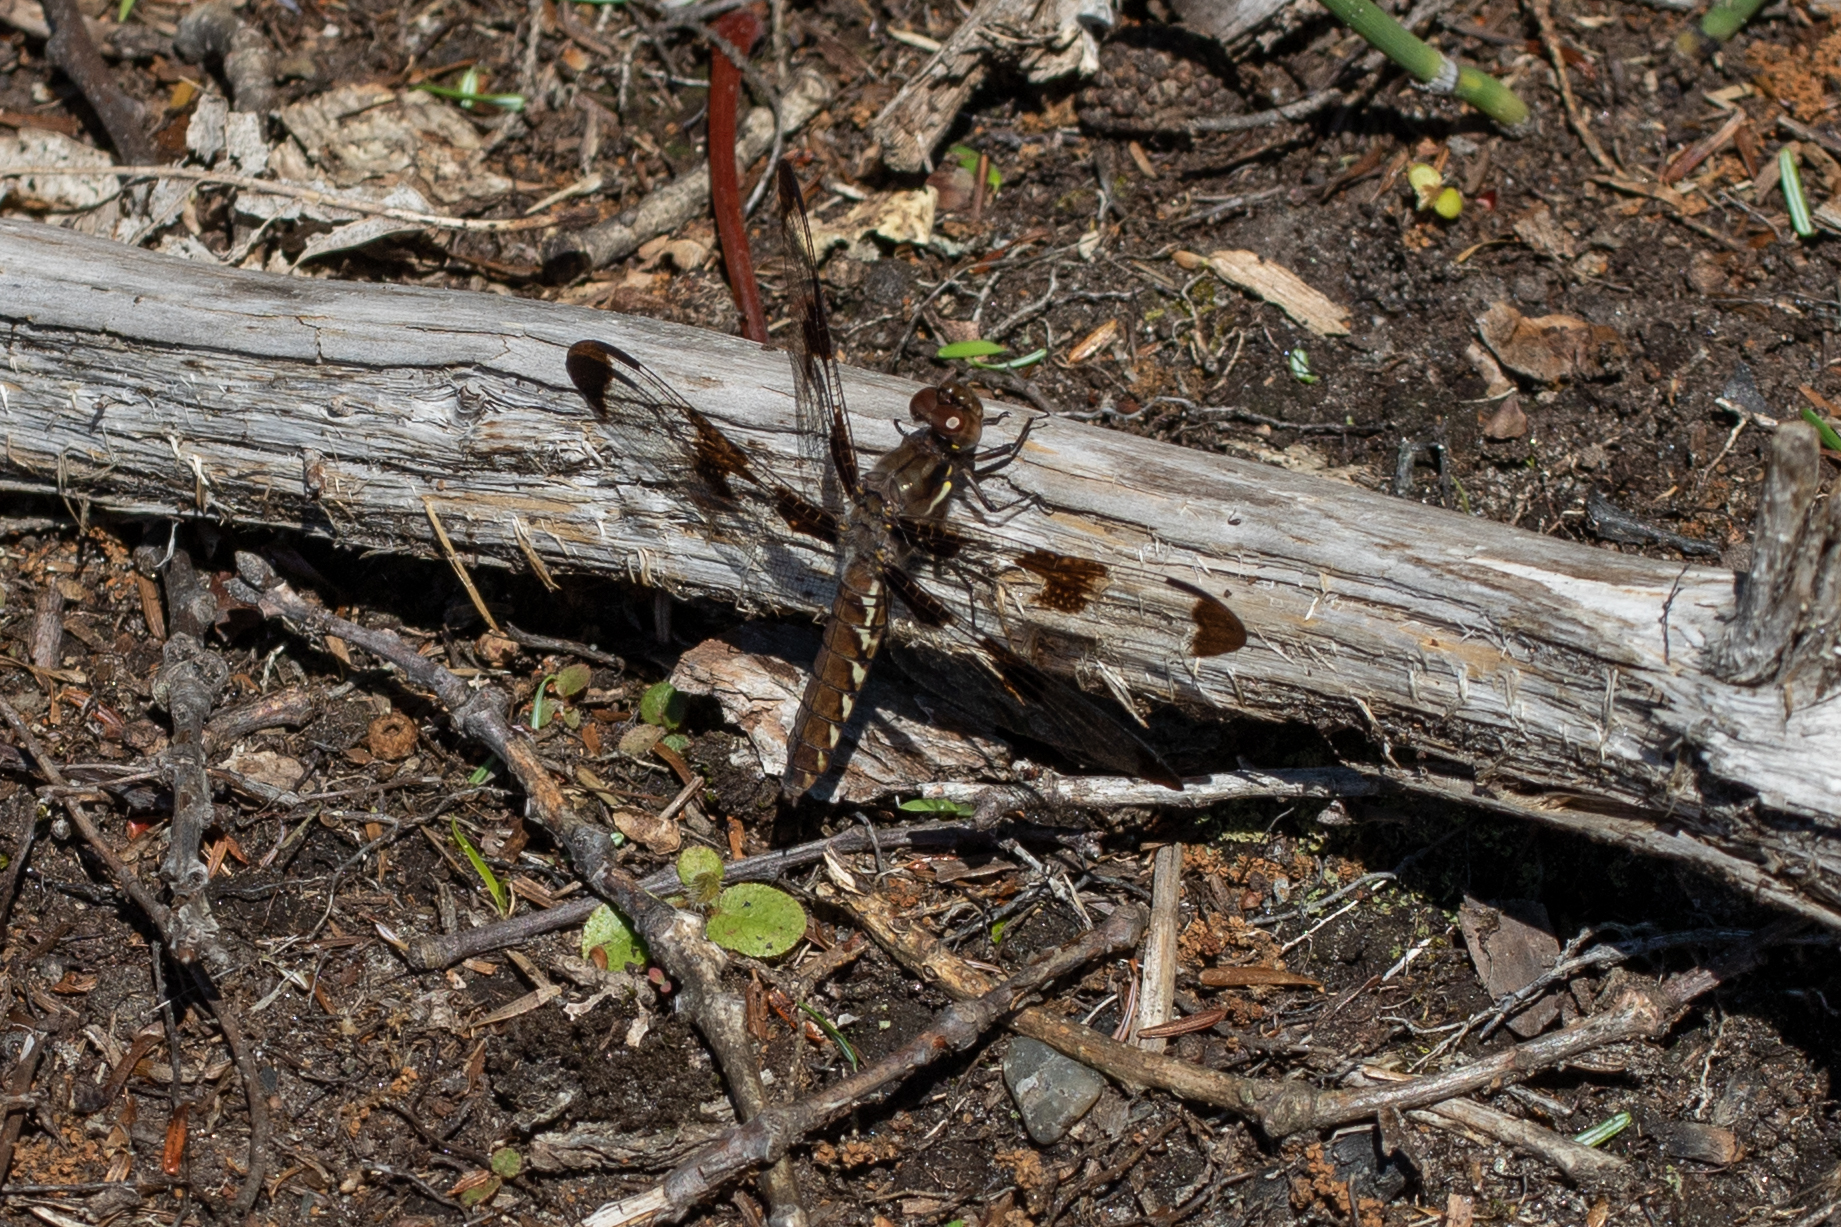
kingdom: Animalia
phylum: Arthropoda
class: Insecta
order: Odonata
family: Libellulidae
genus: Plathemis
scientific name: Plathemis lydia
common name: Common whitetail
